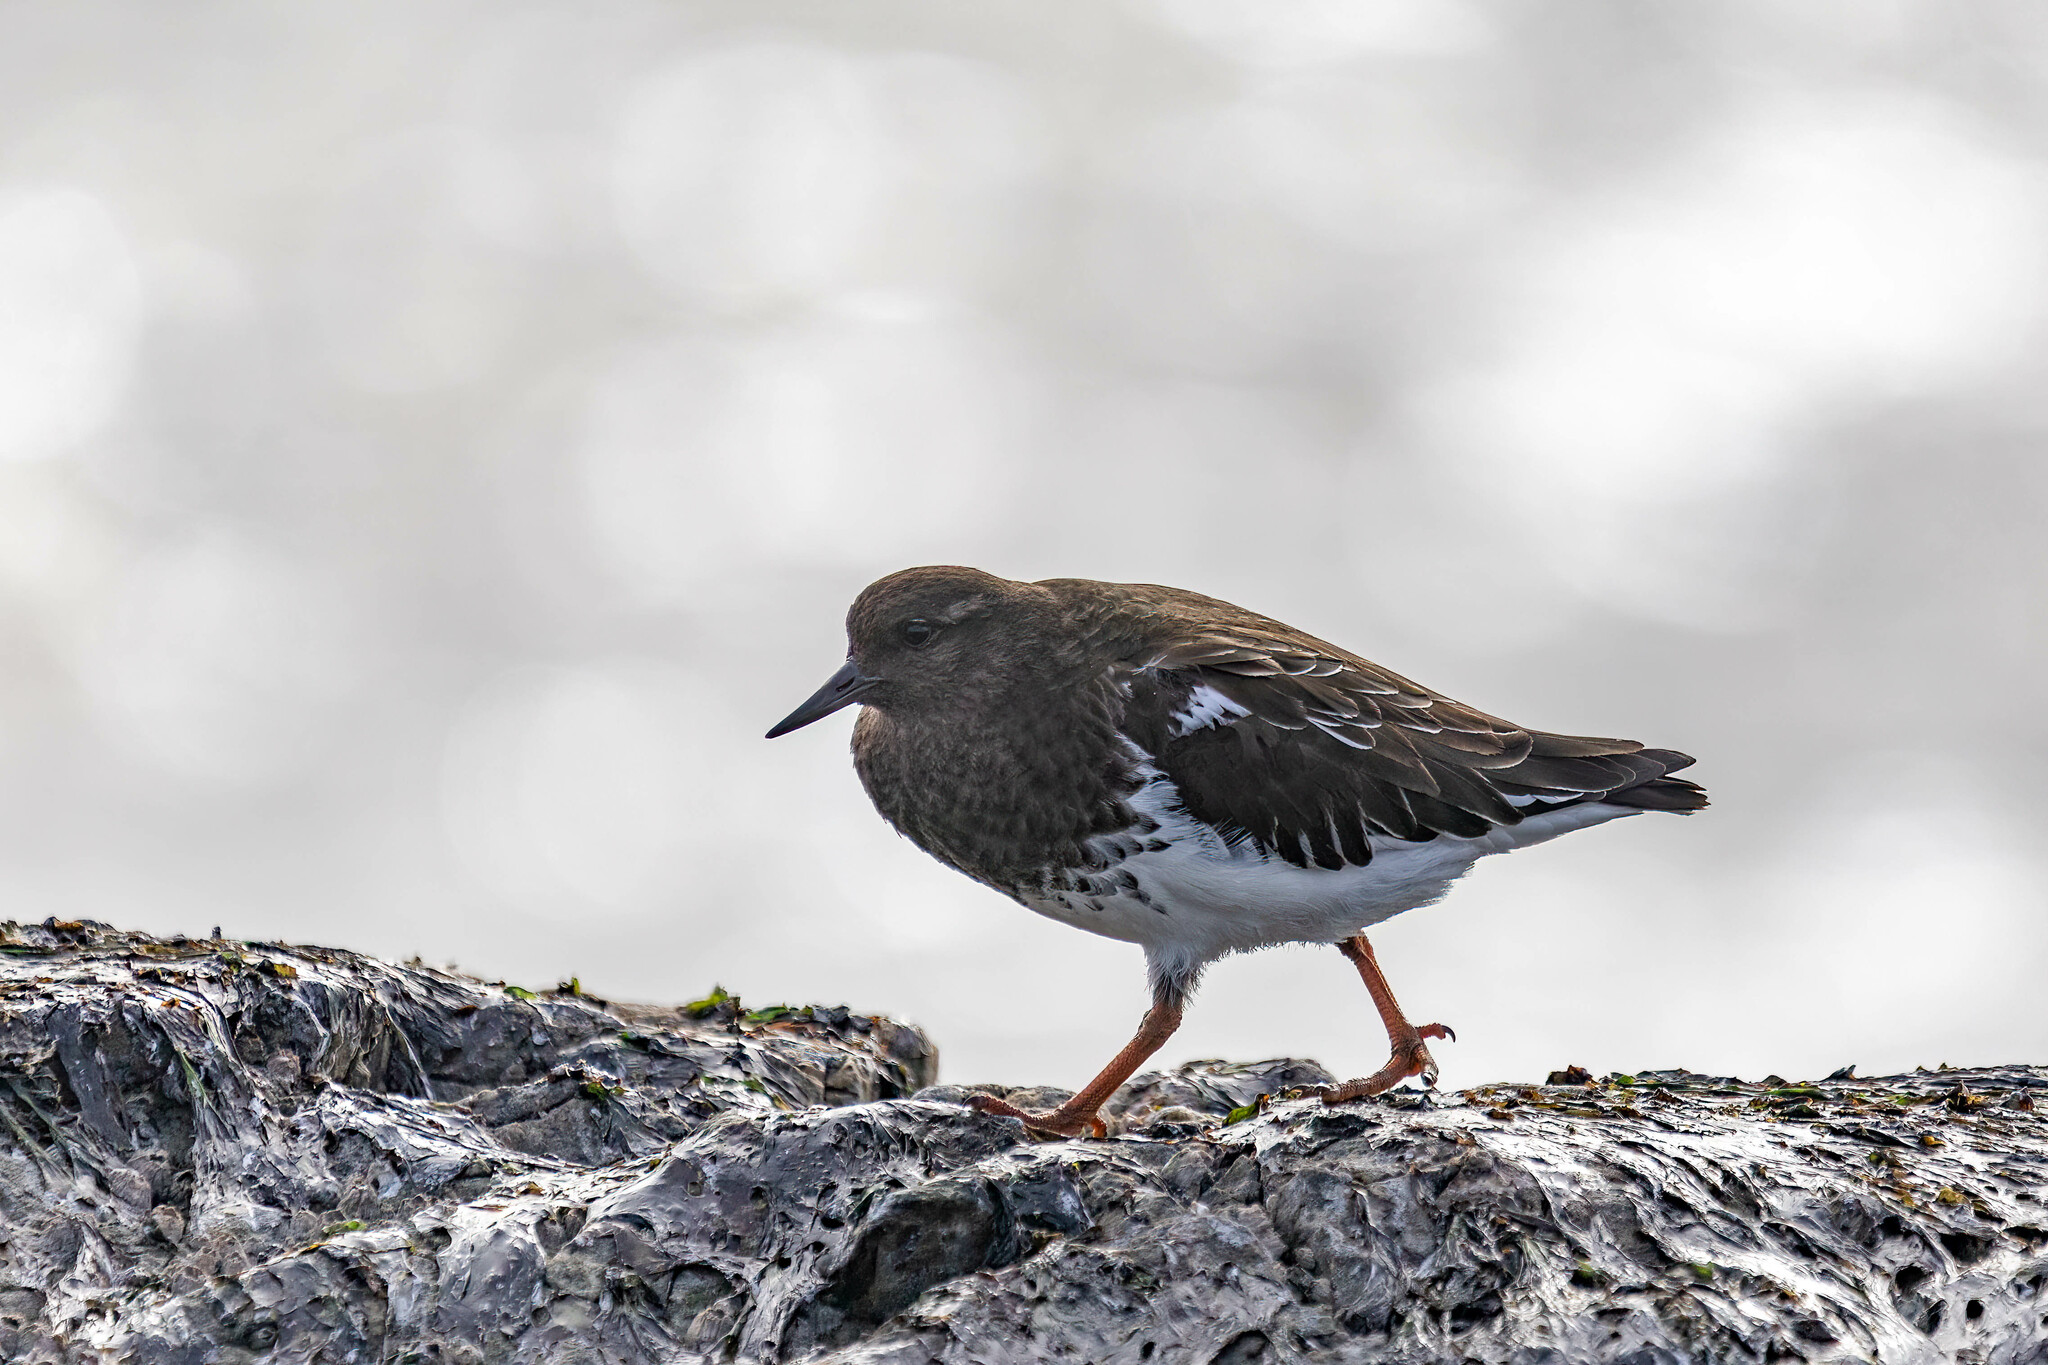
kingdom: Animalia
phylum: Chordata
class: Aves
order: Charadriiformes
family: Scolopacidae
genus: Arenaria
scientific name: Arenaria melanocephala
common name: Black turnstone
